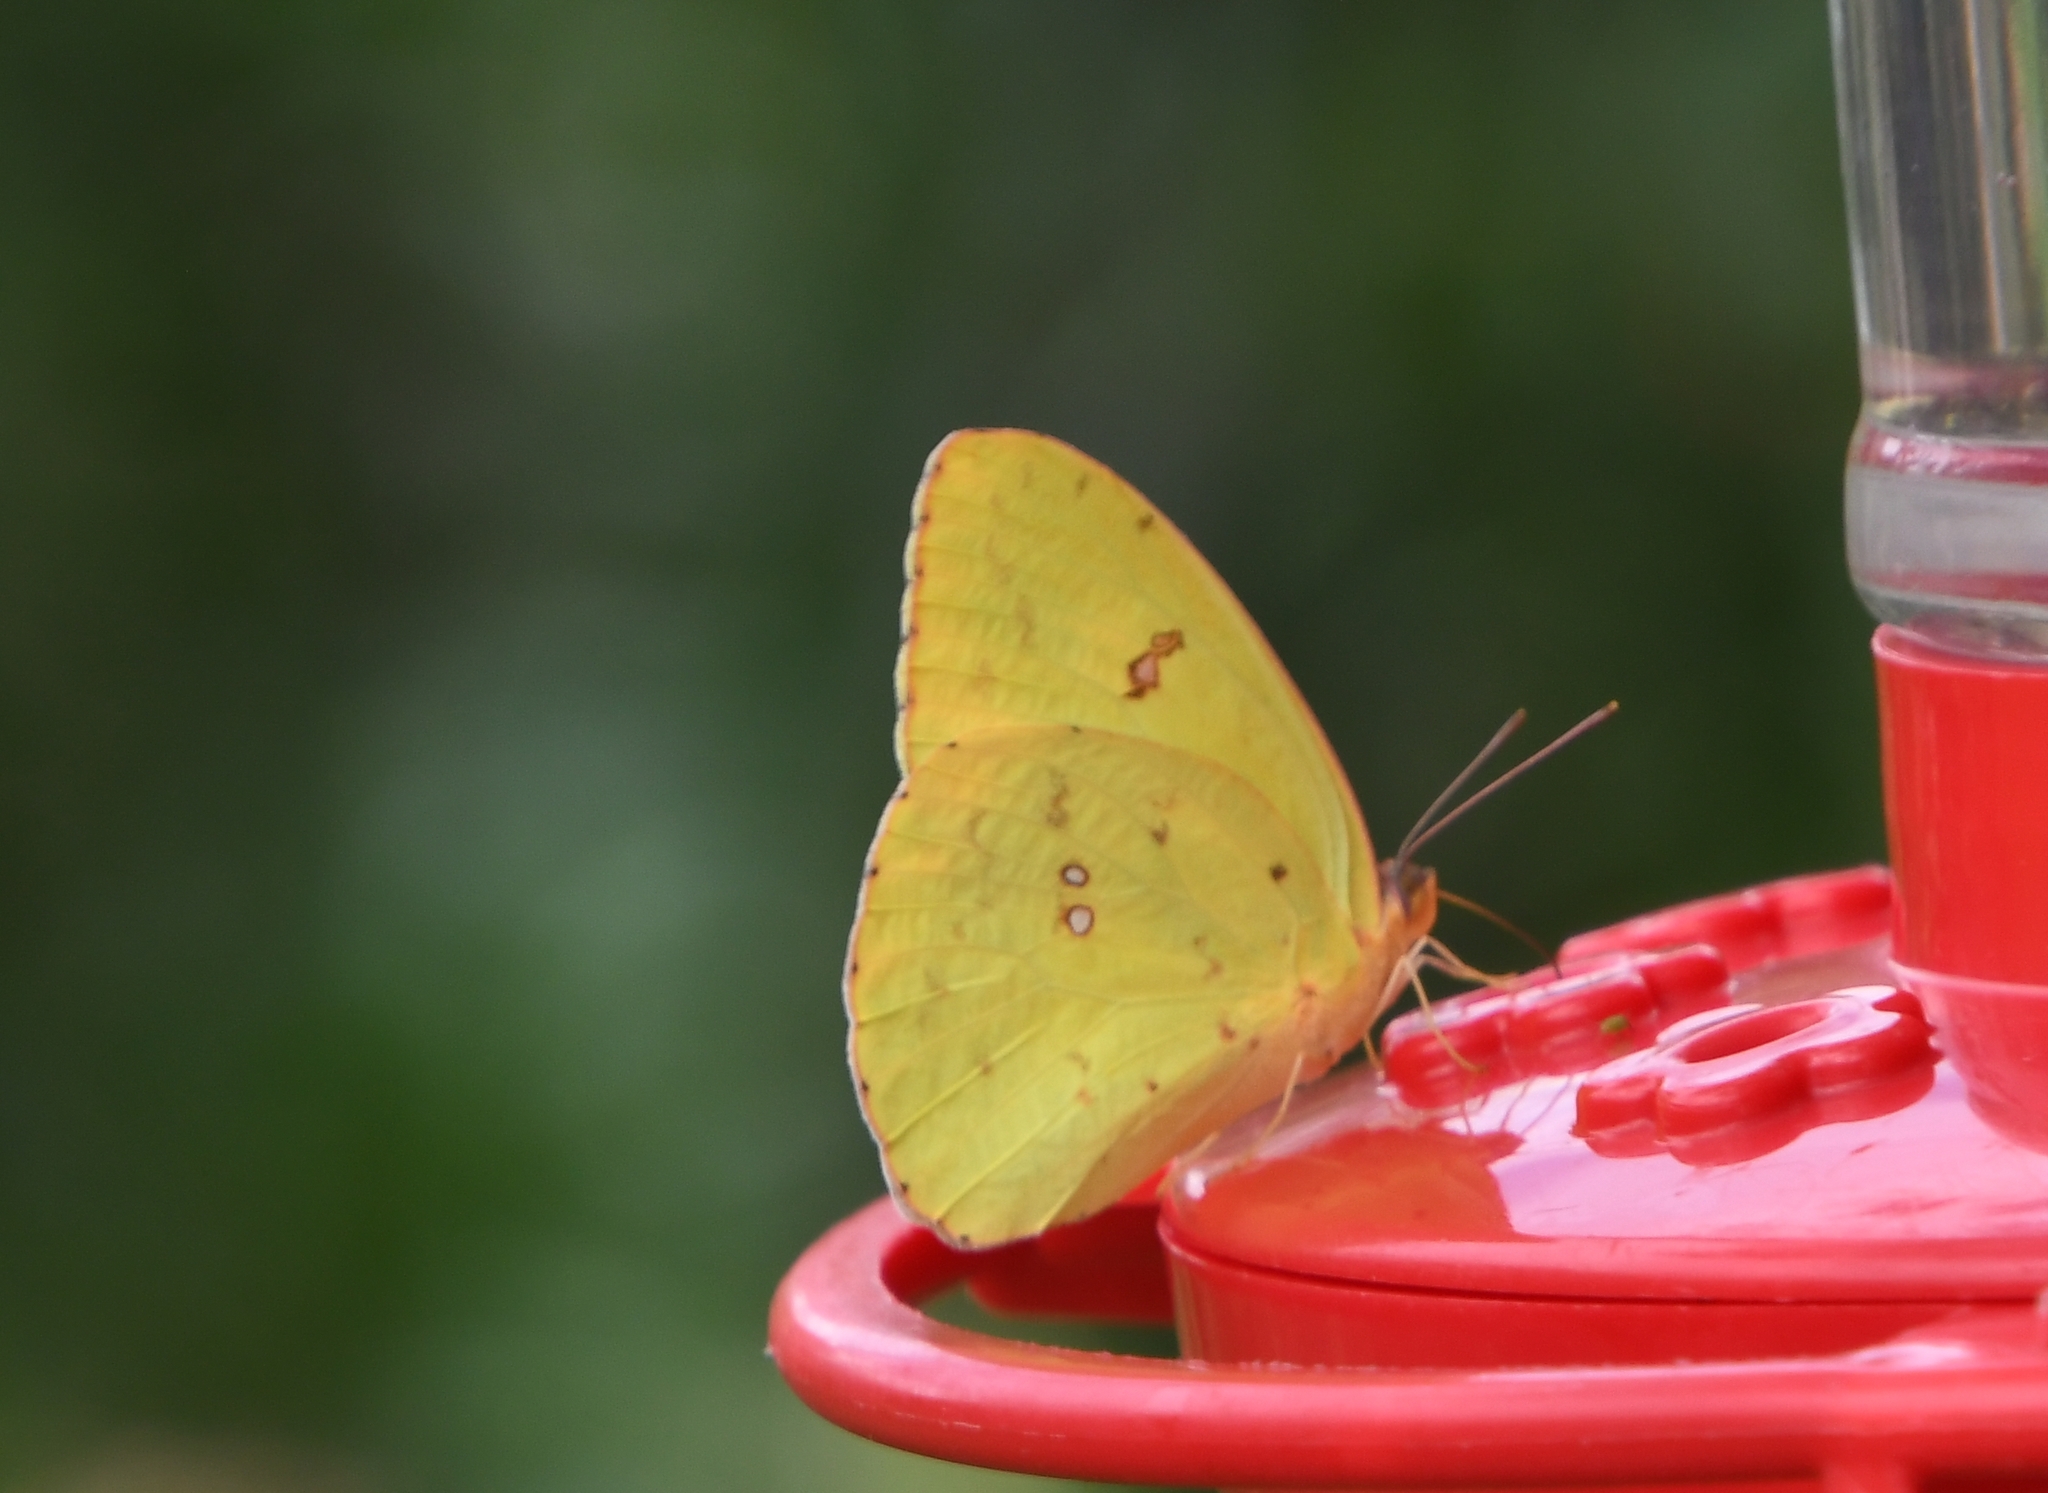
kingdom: Animalia
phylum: Arthropoda
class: Insecta
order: Lepidoptera
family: Pieridae
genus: Phoebis
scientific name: Phoebis sennae
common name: Cloudless sulphur
